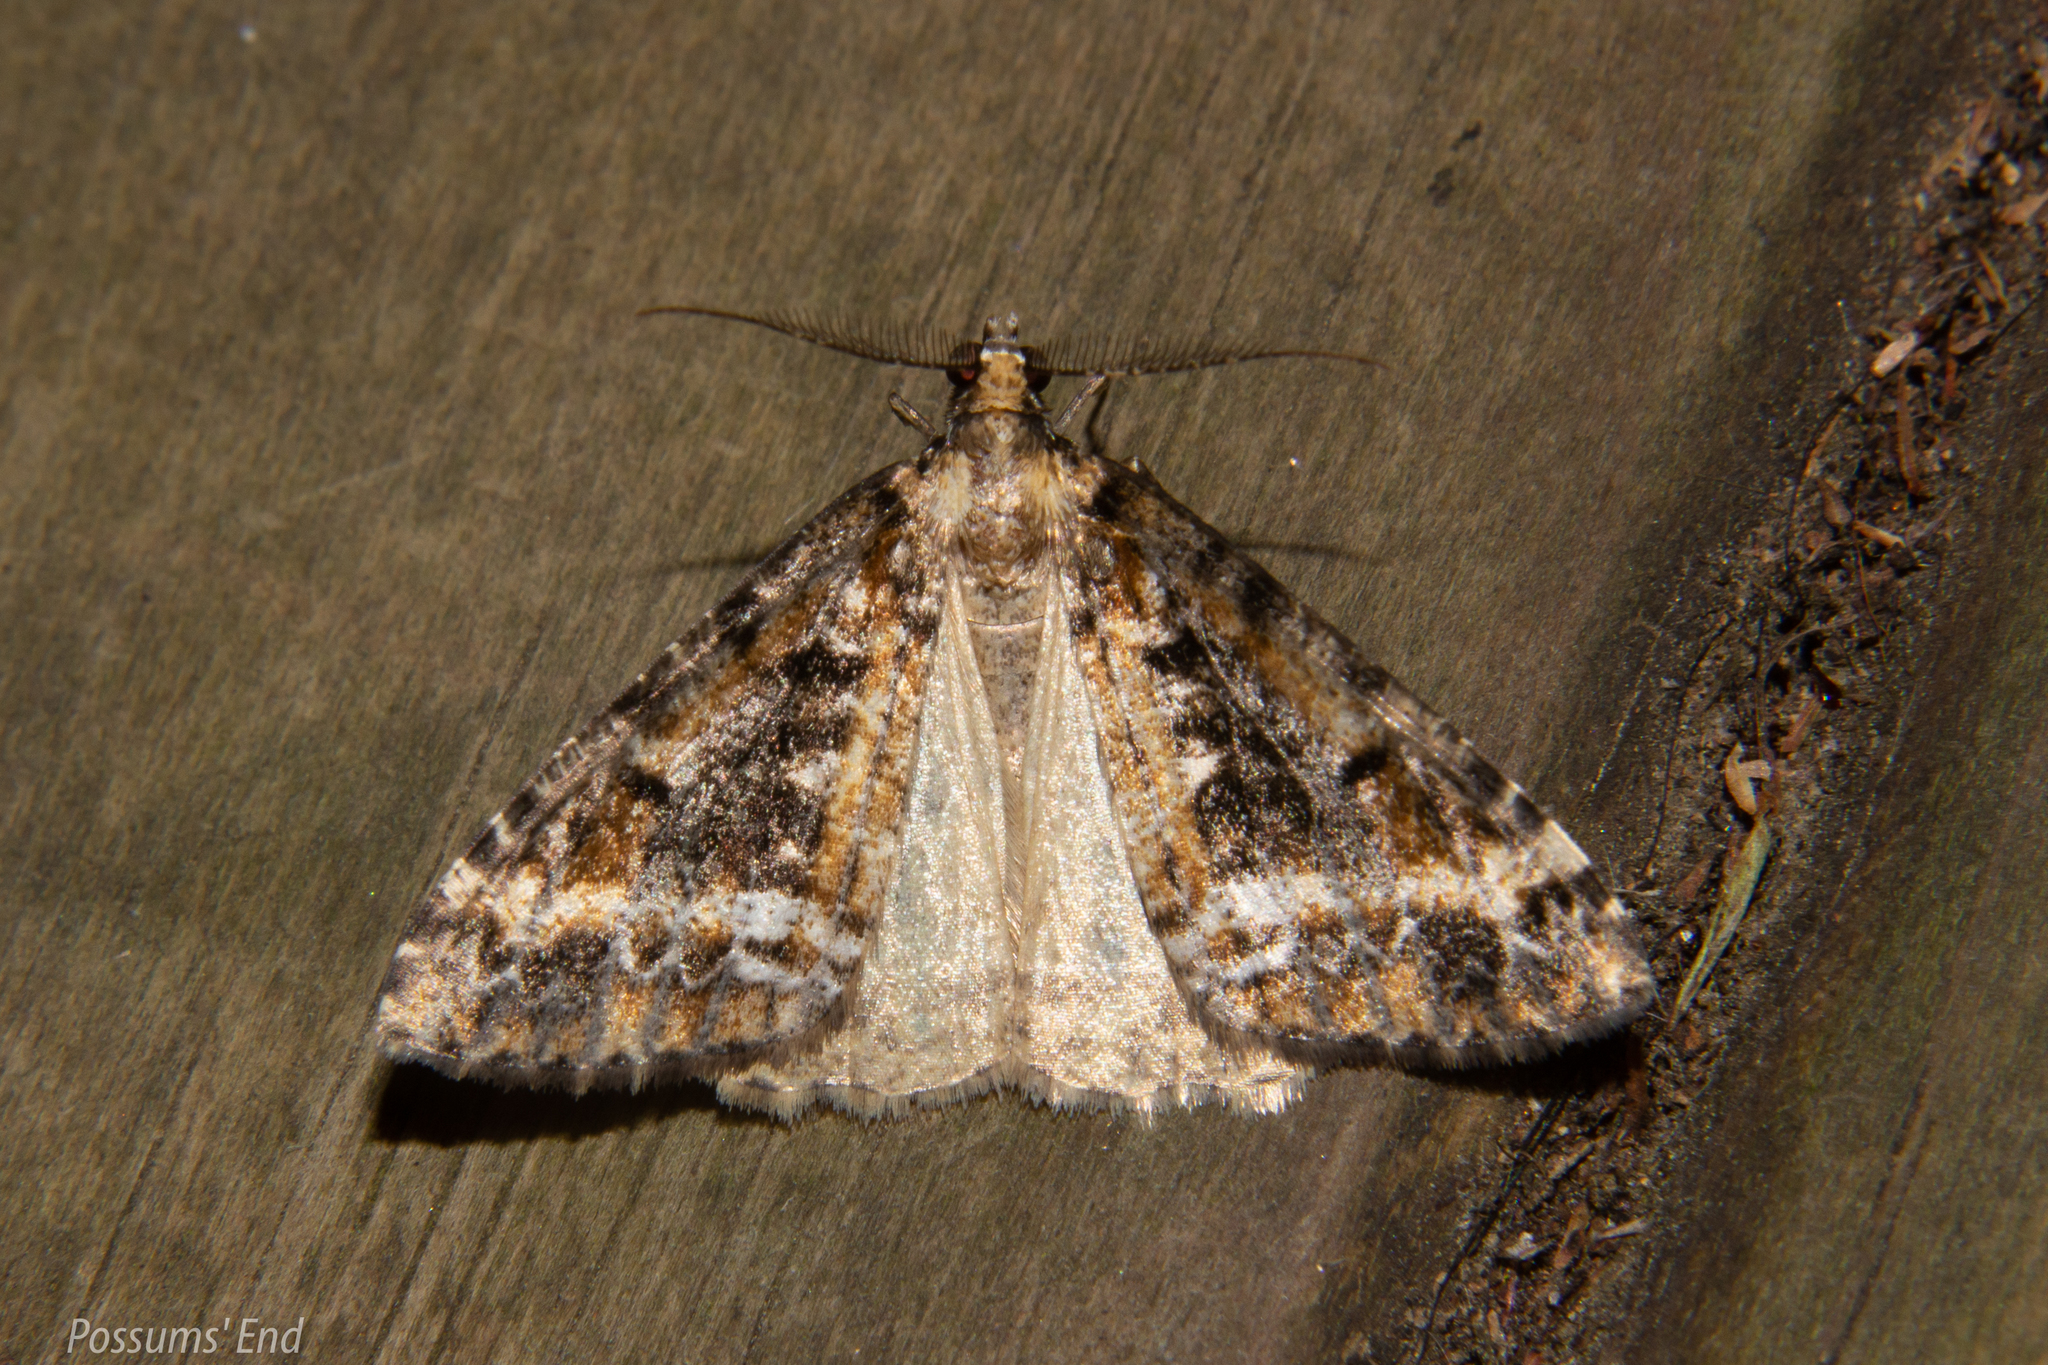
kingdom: Animalia
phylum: Arthropoda
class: Insecta
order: Lepidoptera
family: Geometridae
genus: Pseudocoremia
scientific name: Pseudocoremia leucelaea
